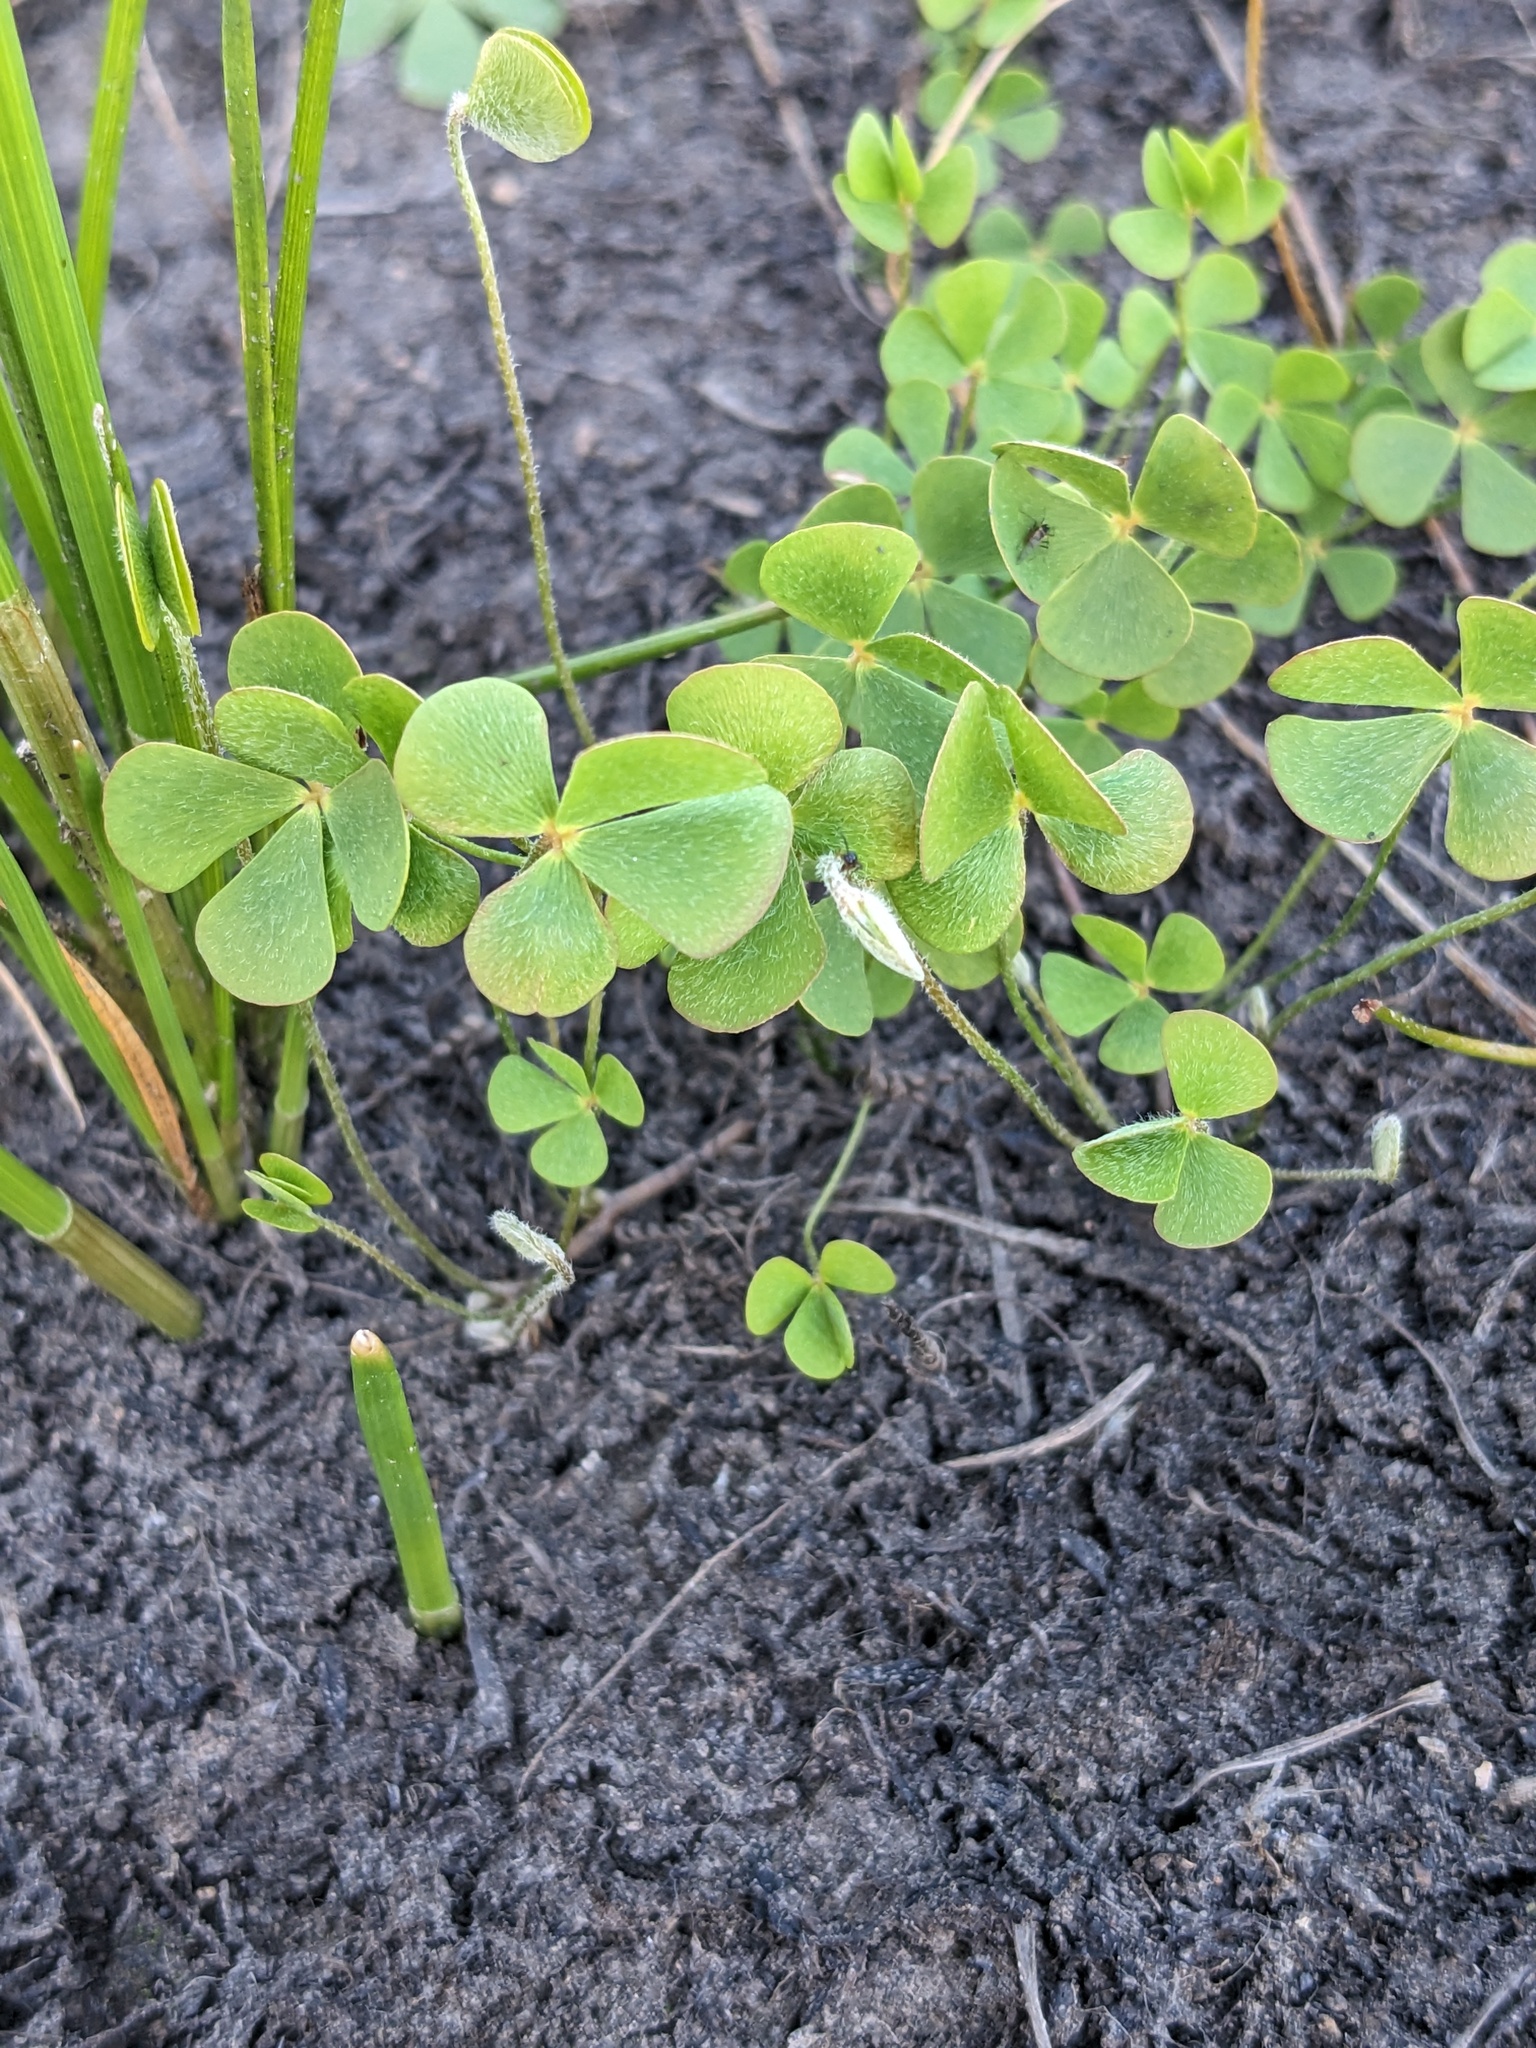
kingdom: Plantae
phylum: Tracheophyta
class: Polypodiopsida
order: Salviniales
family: Marsileaceae
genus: Marsilea
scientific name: Marsilea vestita
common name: Hooked-pepperwort
